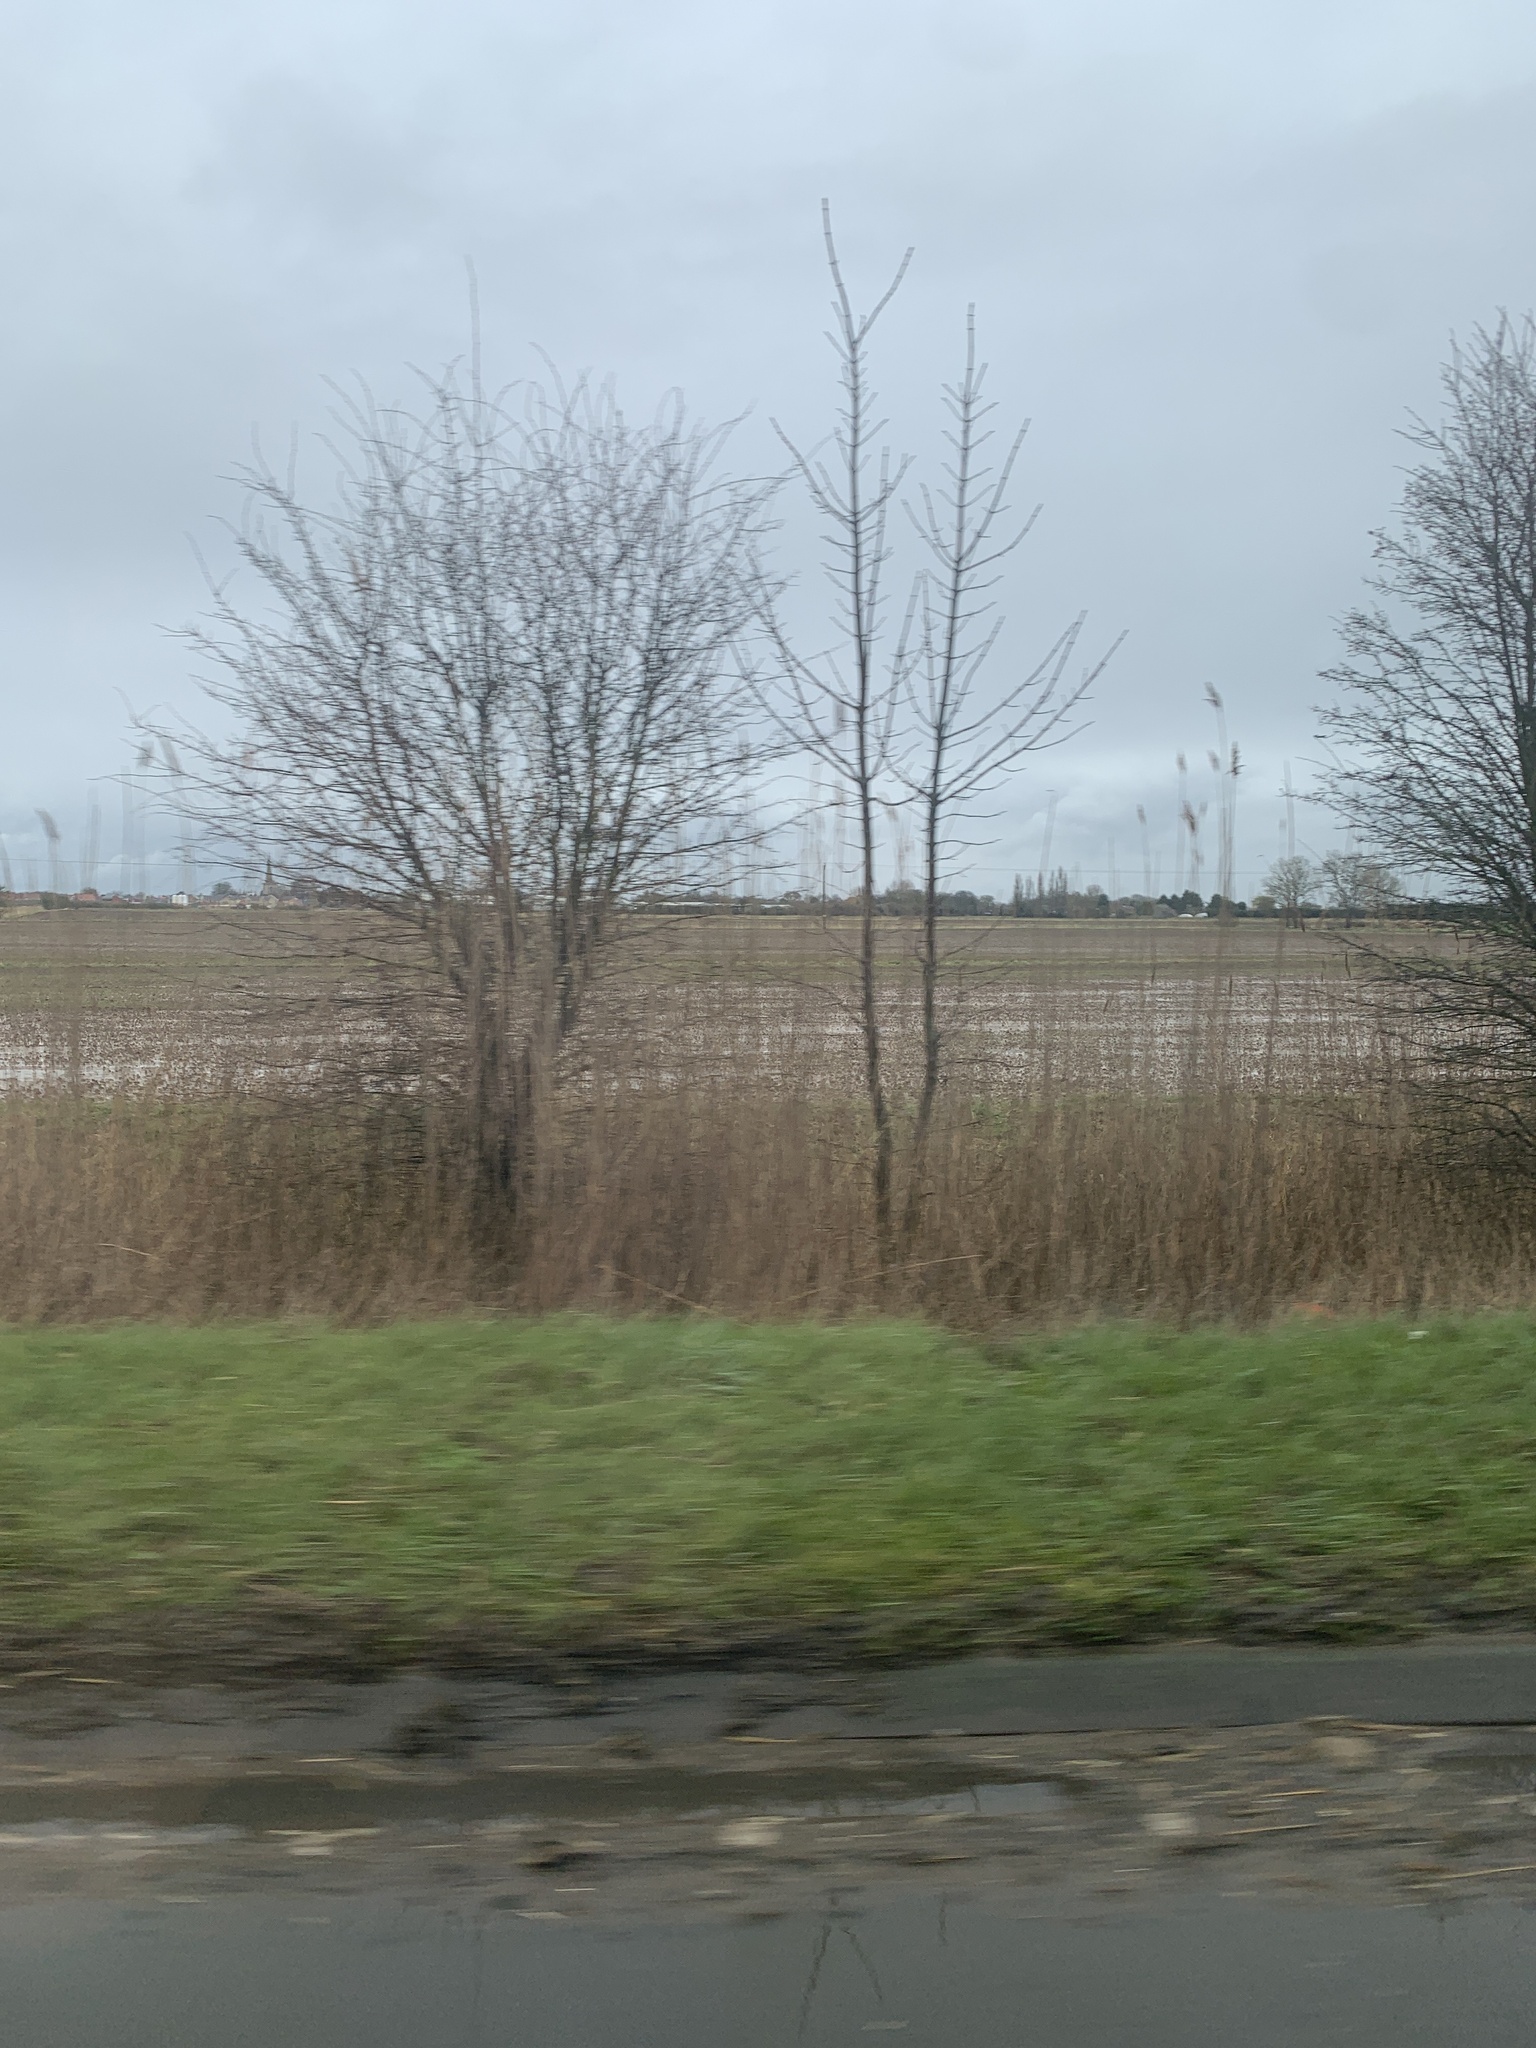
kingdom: Plantae
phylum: Tracheophyta
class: Liliopsida
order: Poales
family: Poaceae
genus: Phragmites
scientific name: Phragmites australis
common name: Common reed
